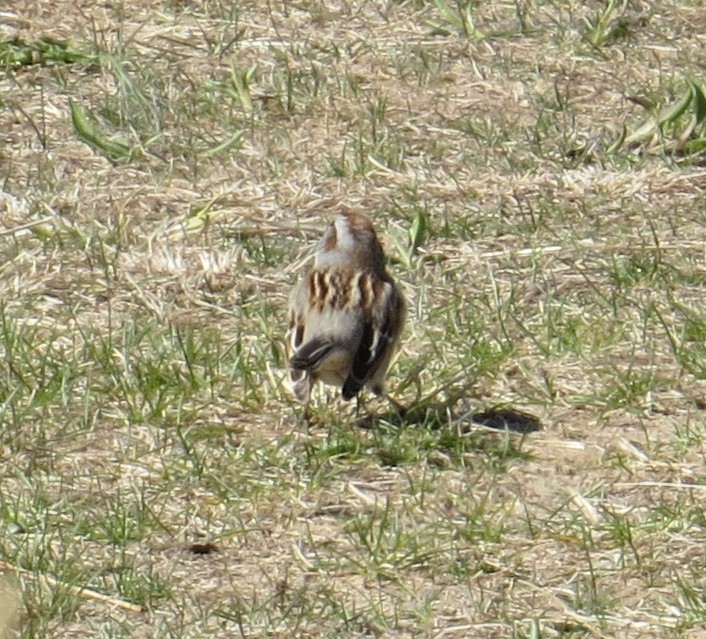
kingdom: Animalia
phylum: Chordata
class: Aves
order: Passeriformes
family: Passerellidae
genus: Spizelloides
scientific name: Spizelloides arborea
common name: American tree sparrow
